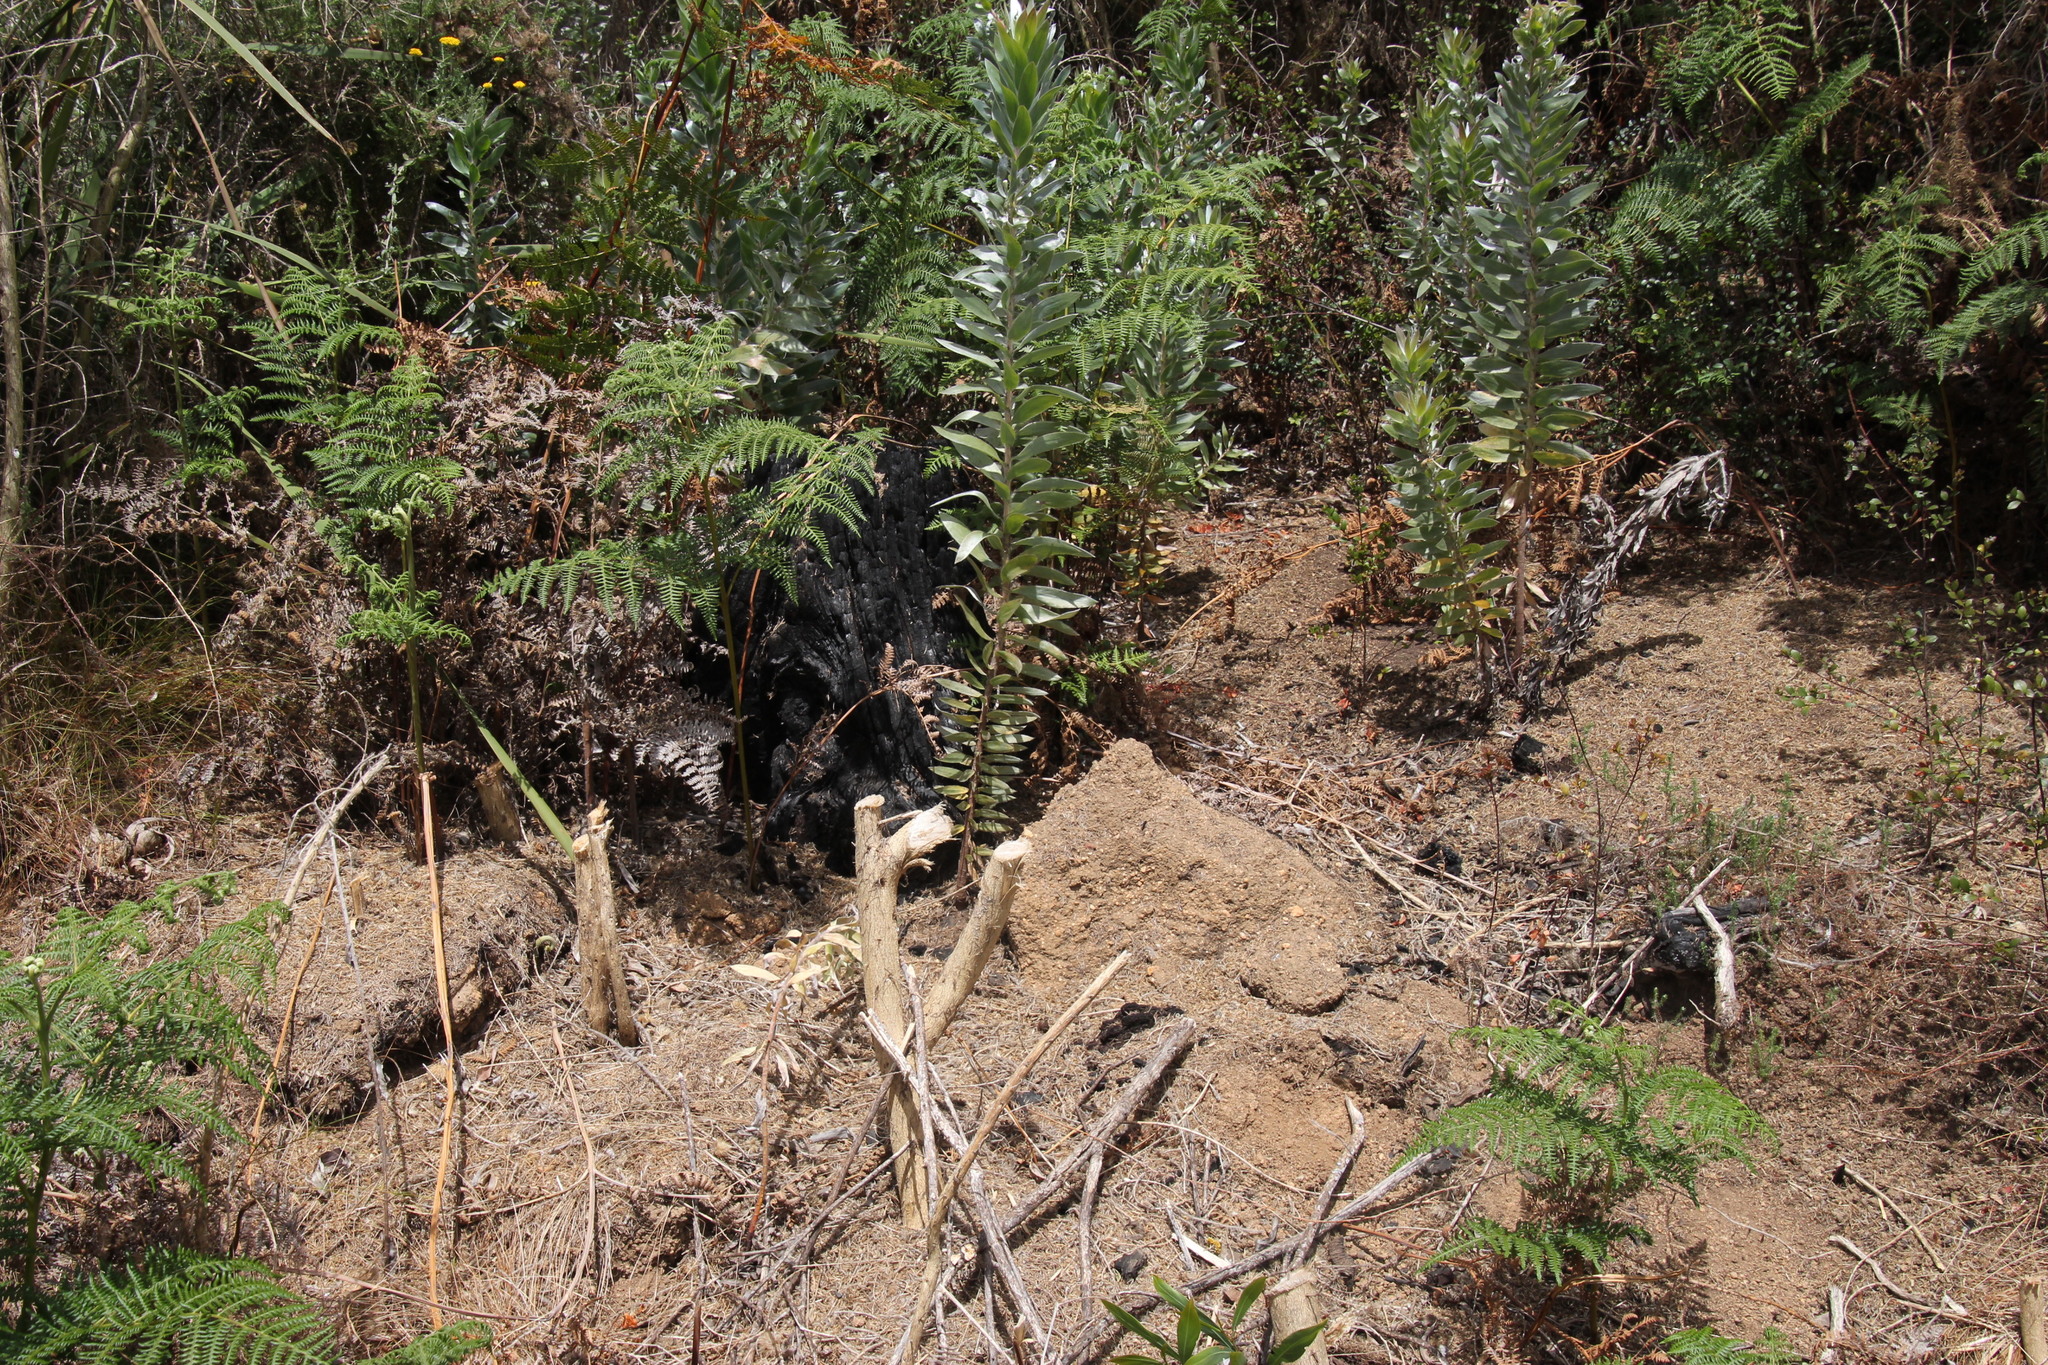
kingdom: Plantae
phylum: Tracheophyta
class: Magnoliopsida
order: Fabales
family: Fabaceae
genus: Aspalathus
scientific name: Aspalathus chenopoda
